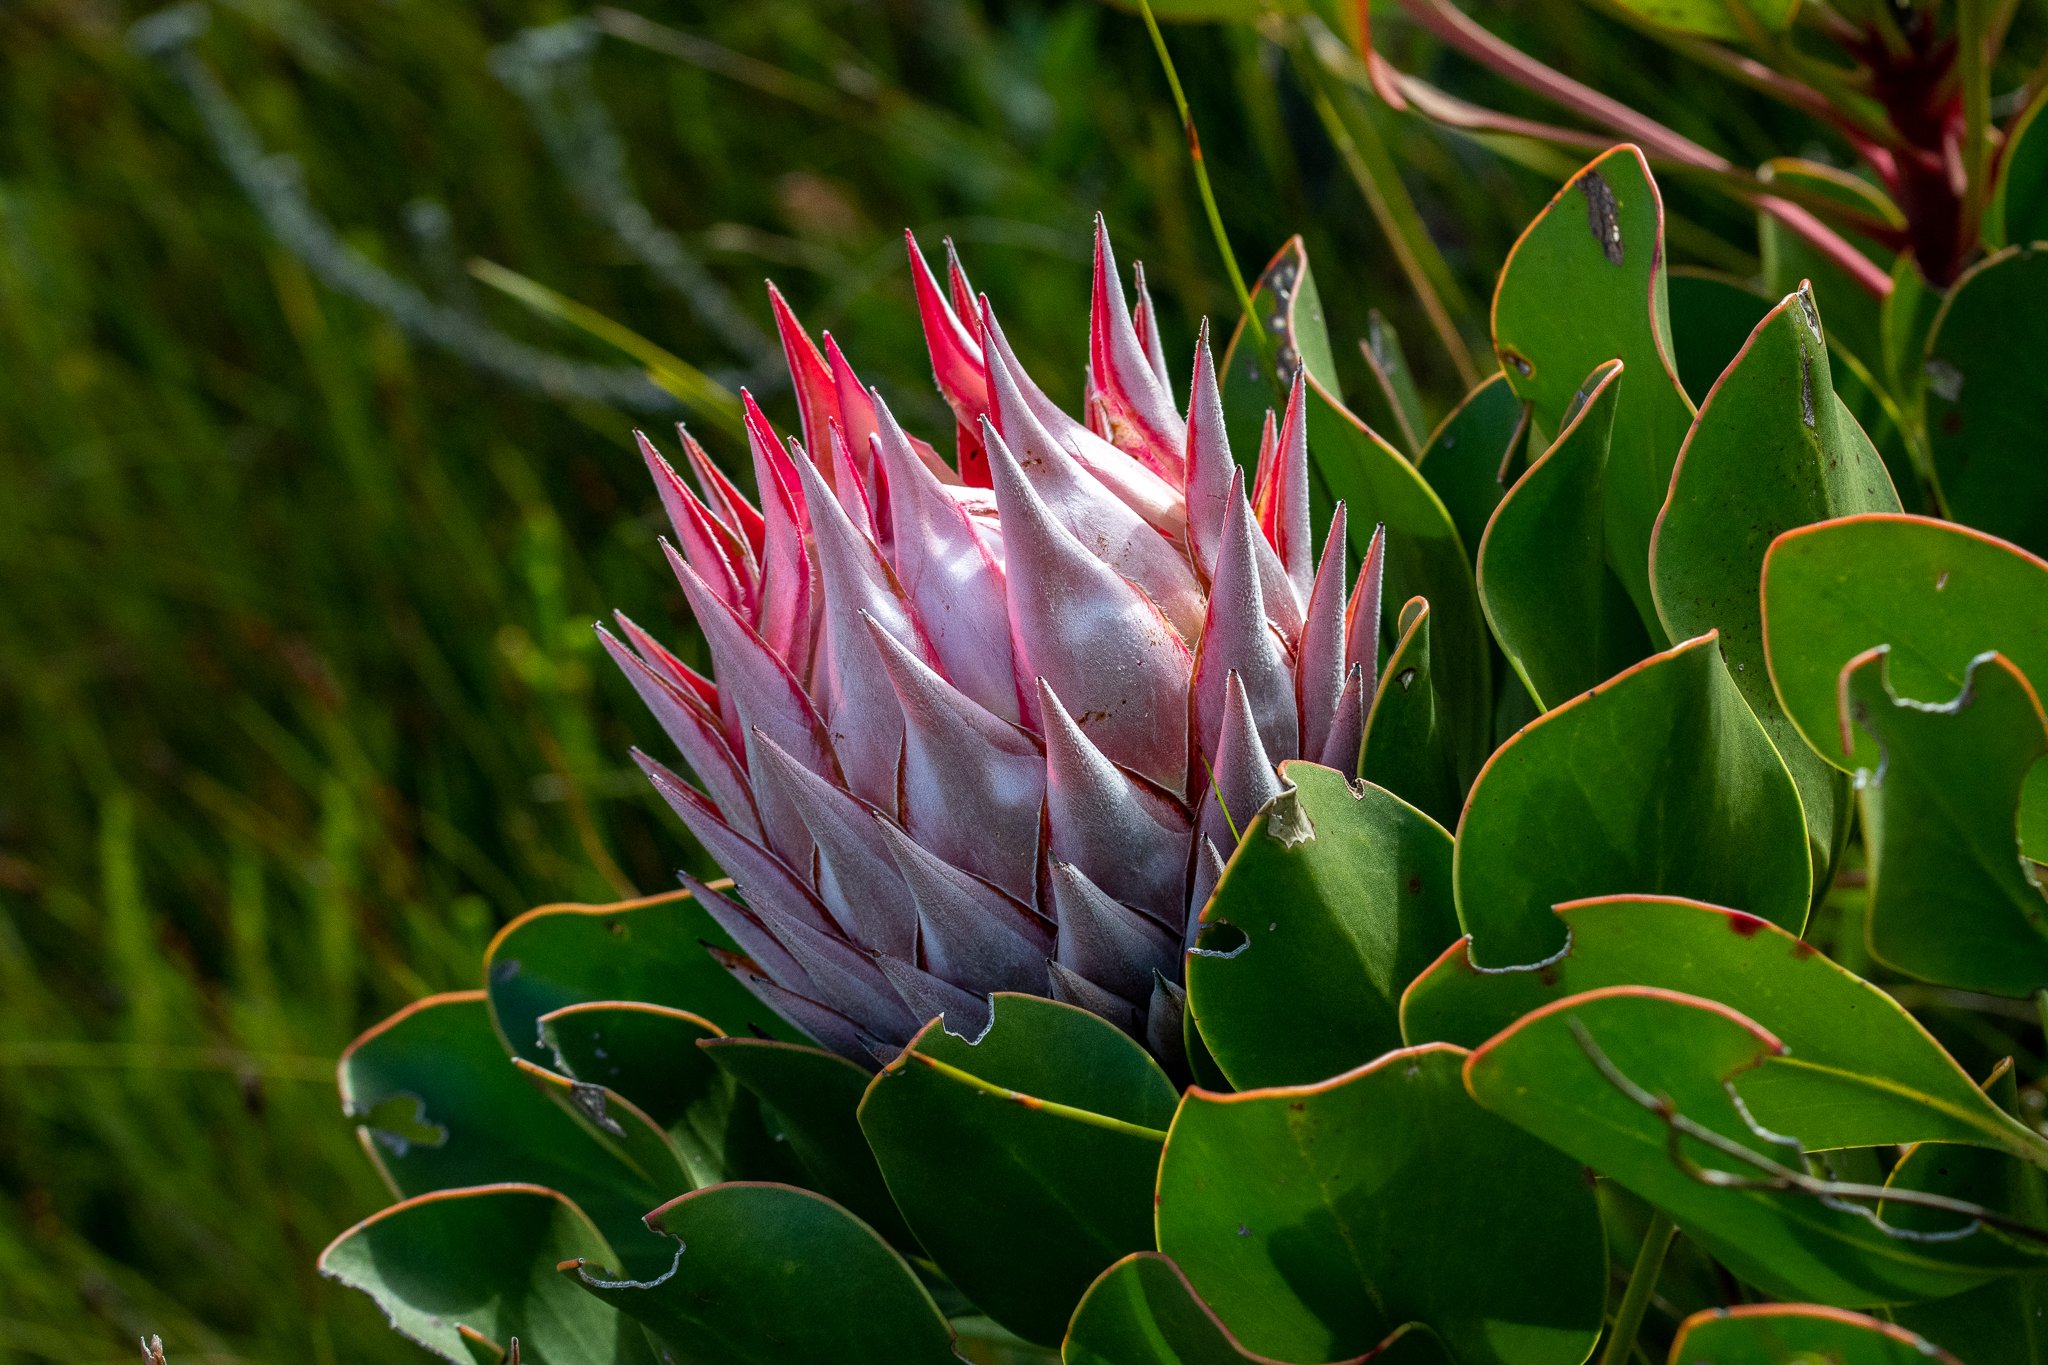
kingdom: Plantae
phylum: Tracheophyta
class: Magnoliopsida
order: Proteales
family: Proteaceae
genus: Protea
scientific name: Protea cynaroides
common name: King protea
